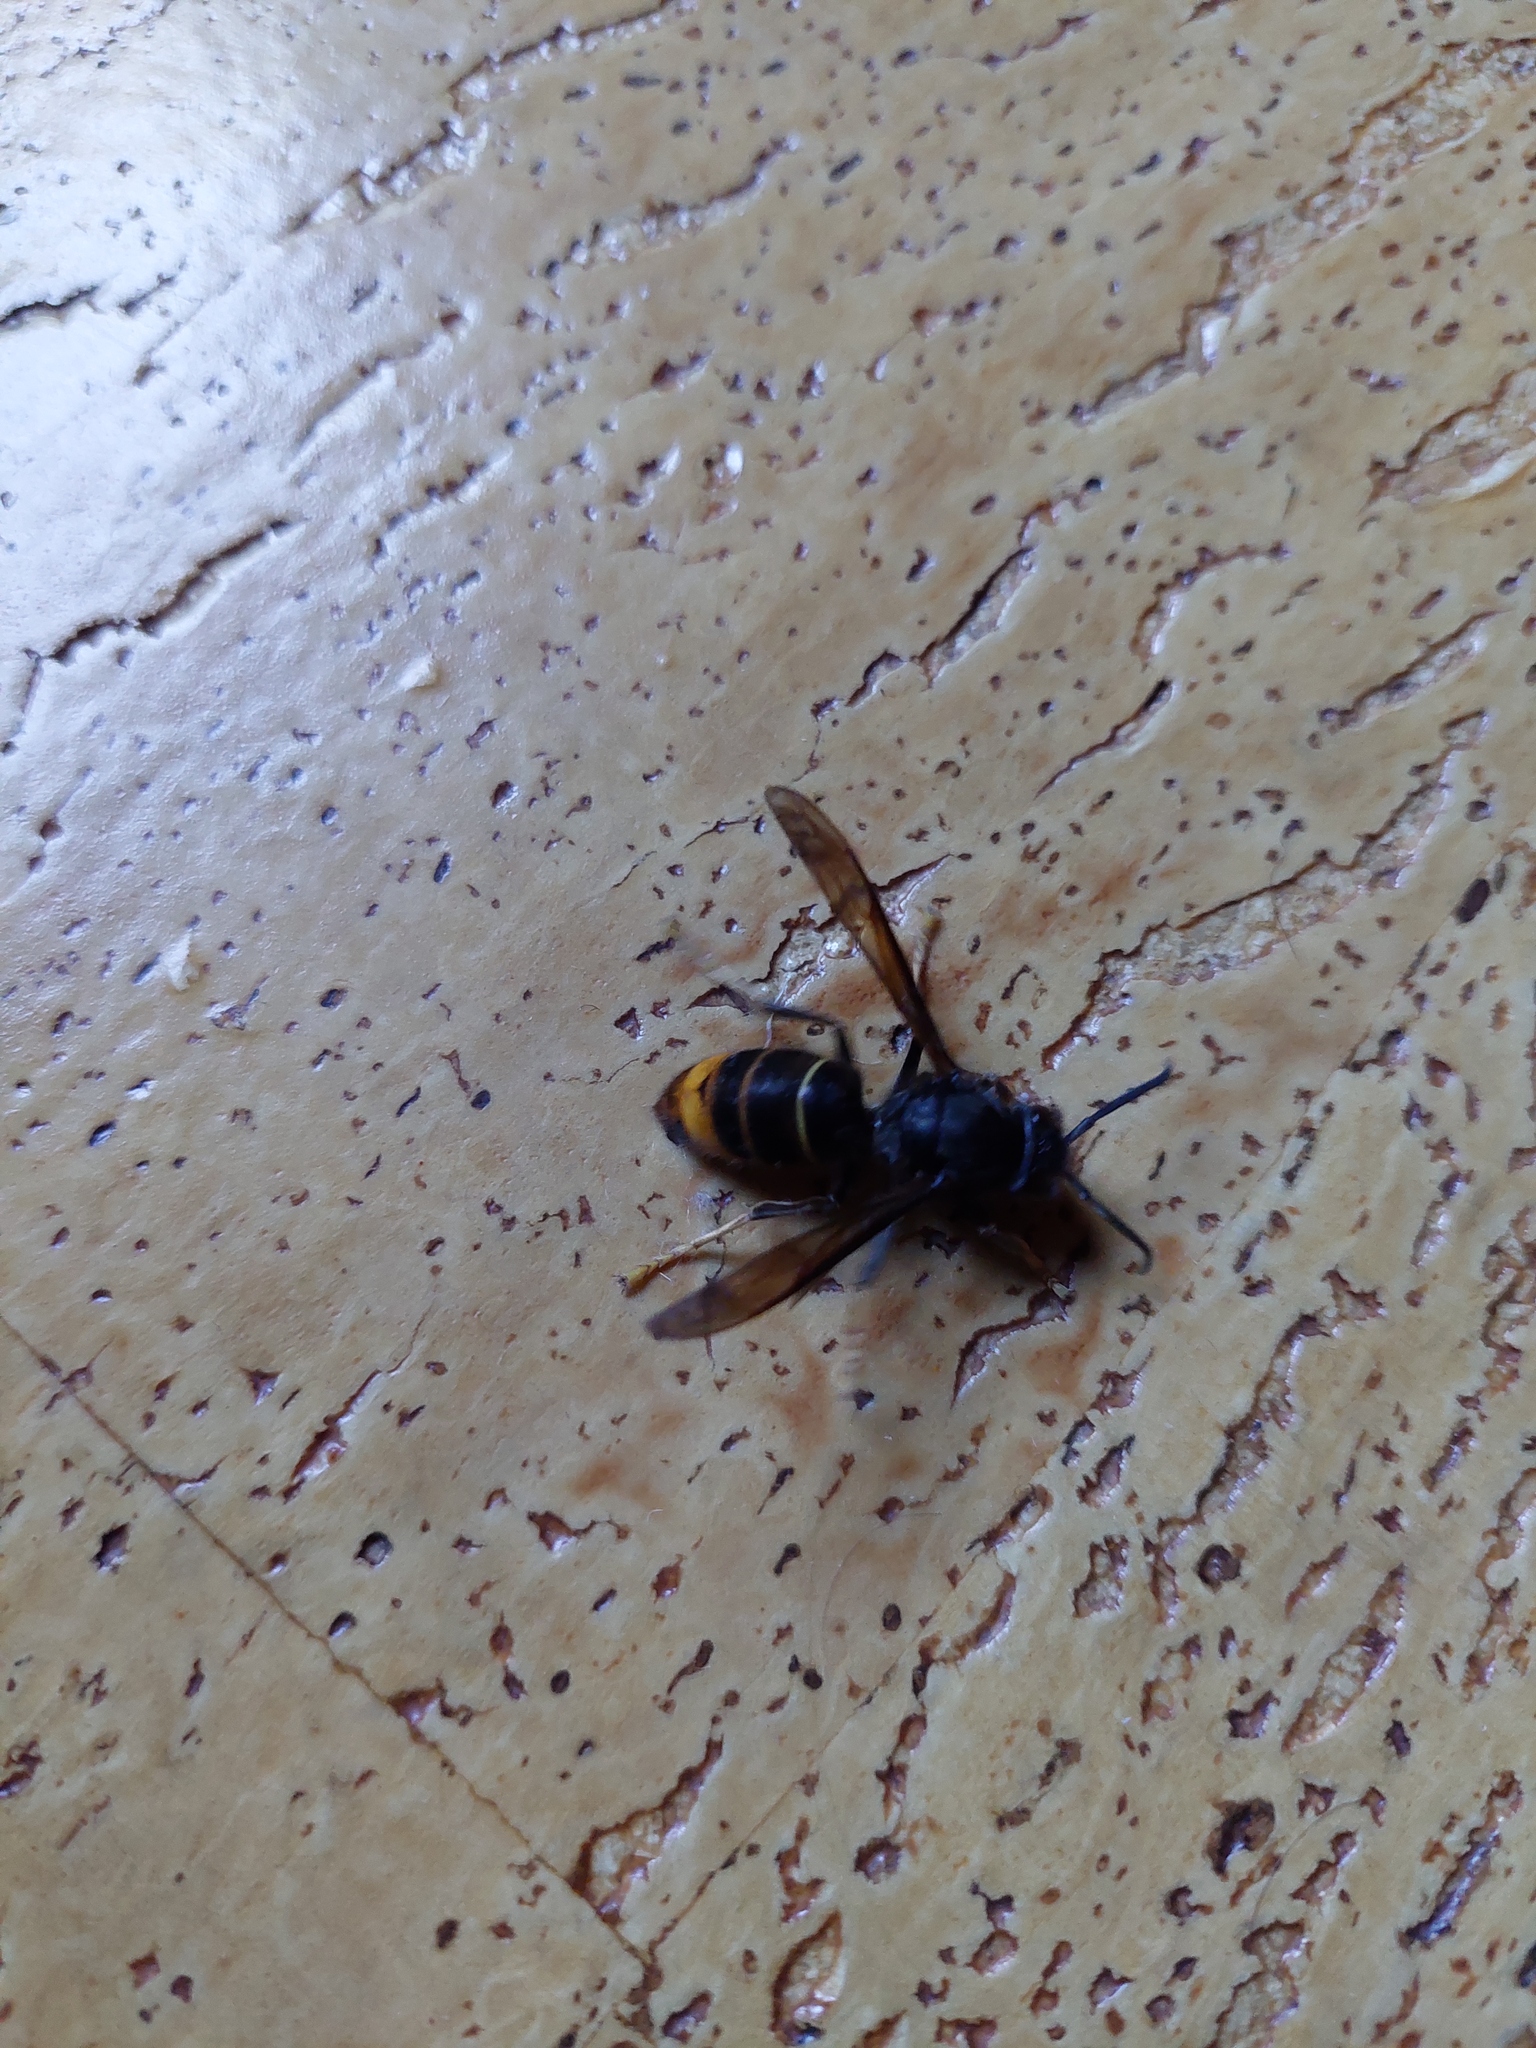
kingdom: Animalia
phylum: Arthropoda
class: Insecta
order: Hymenoptera
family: Vespidae
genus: Vespa
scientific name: Vespa velutina
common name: Asian hornet
